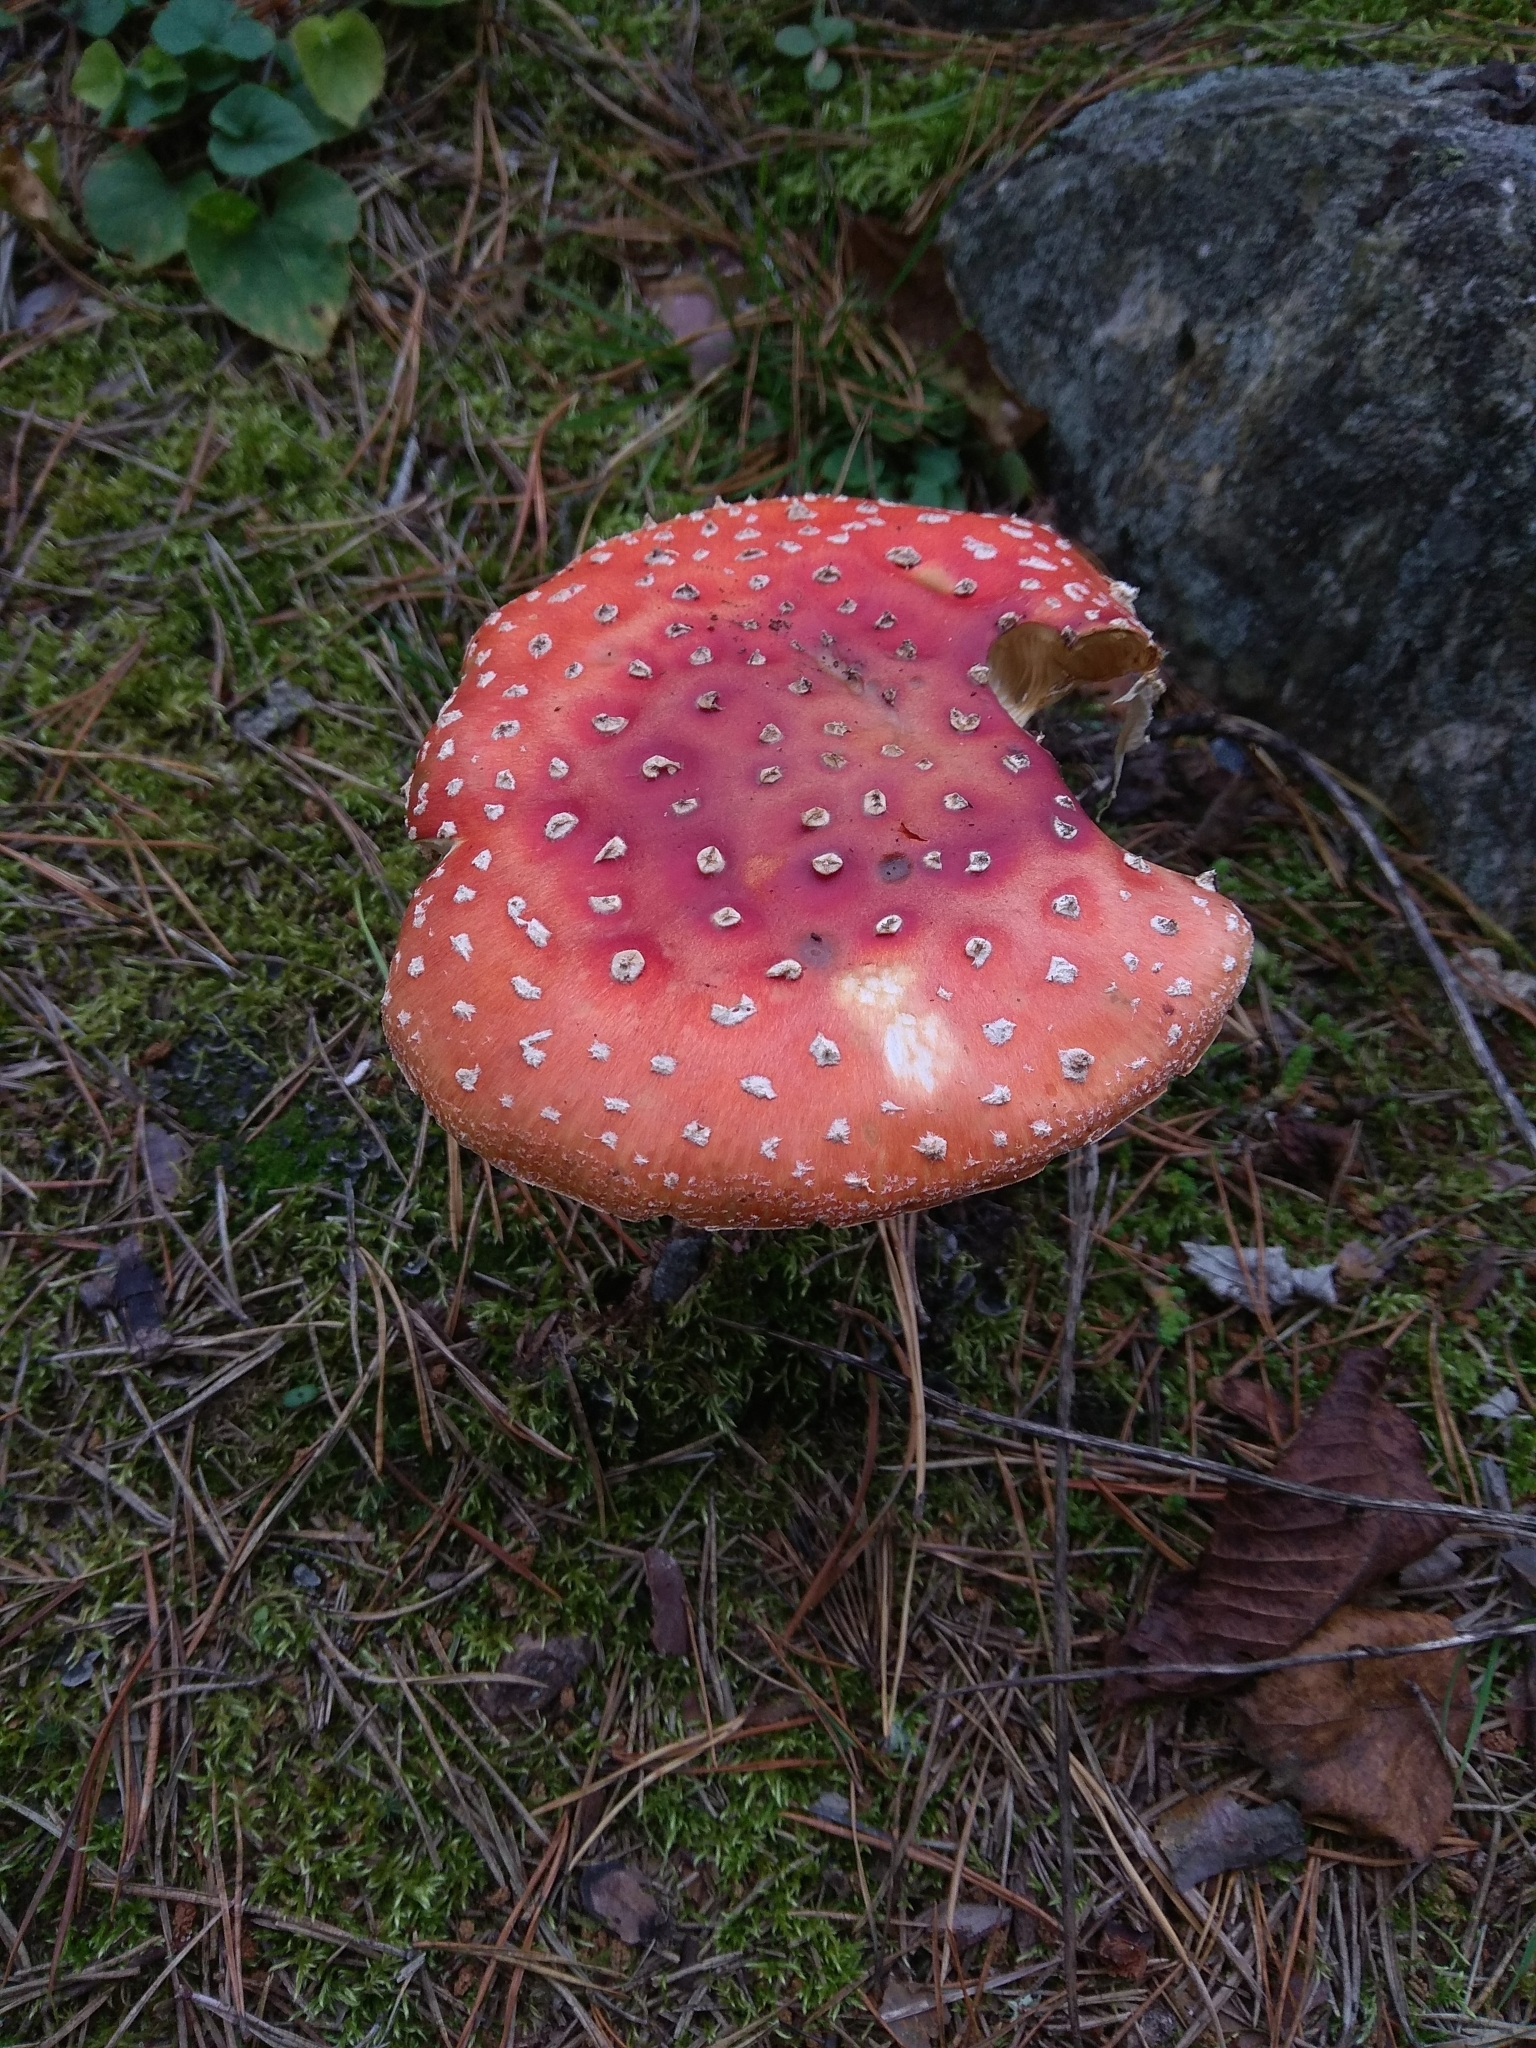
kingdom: Fungi
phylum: Basidiomycota
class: Agaricomycetes
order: Agaricales
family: Amanitaceae
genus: Amanita
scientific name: Amanita muscaria
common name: Fly agaric
